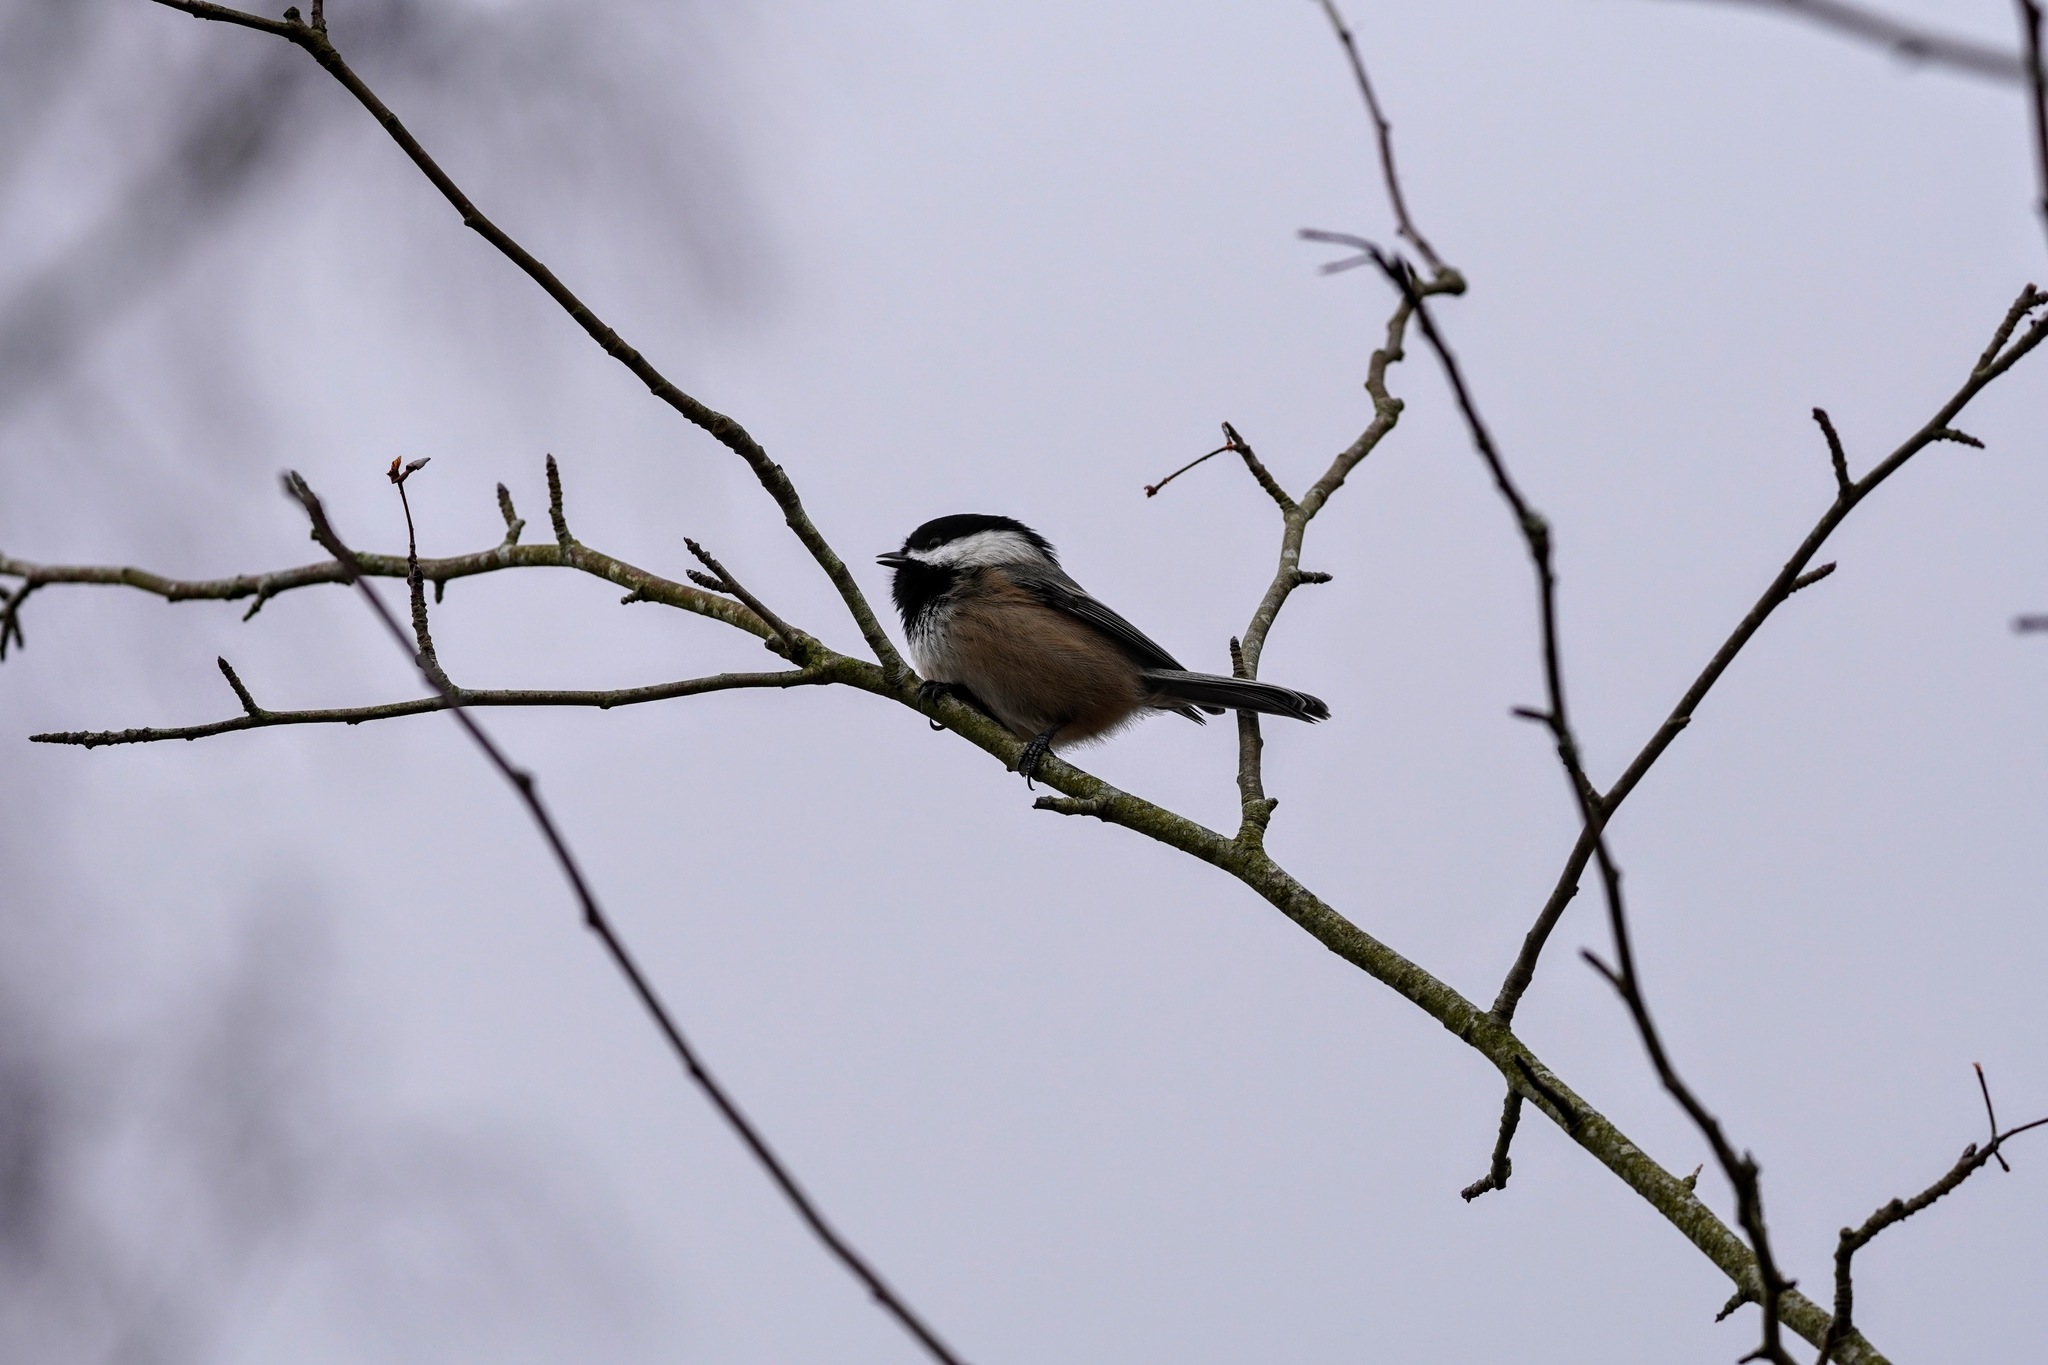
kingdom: Animalia
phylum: Chordata
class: Aves
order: Passeriformes
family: Paridae
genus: Poecile
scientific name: Poecile atricapillus
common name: Black-capped chickadee
